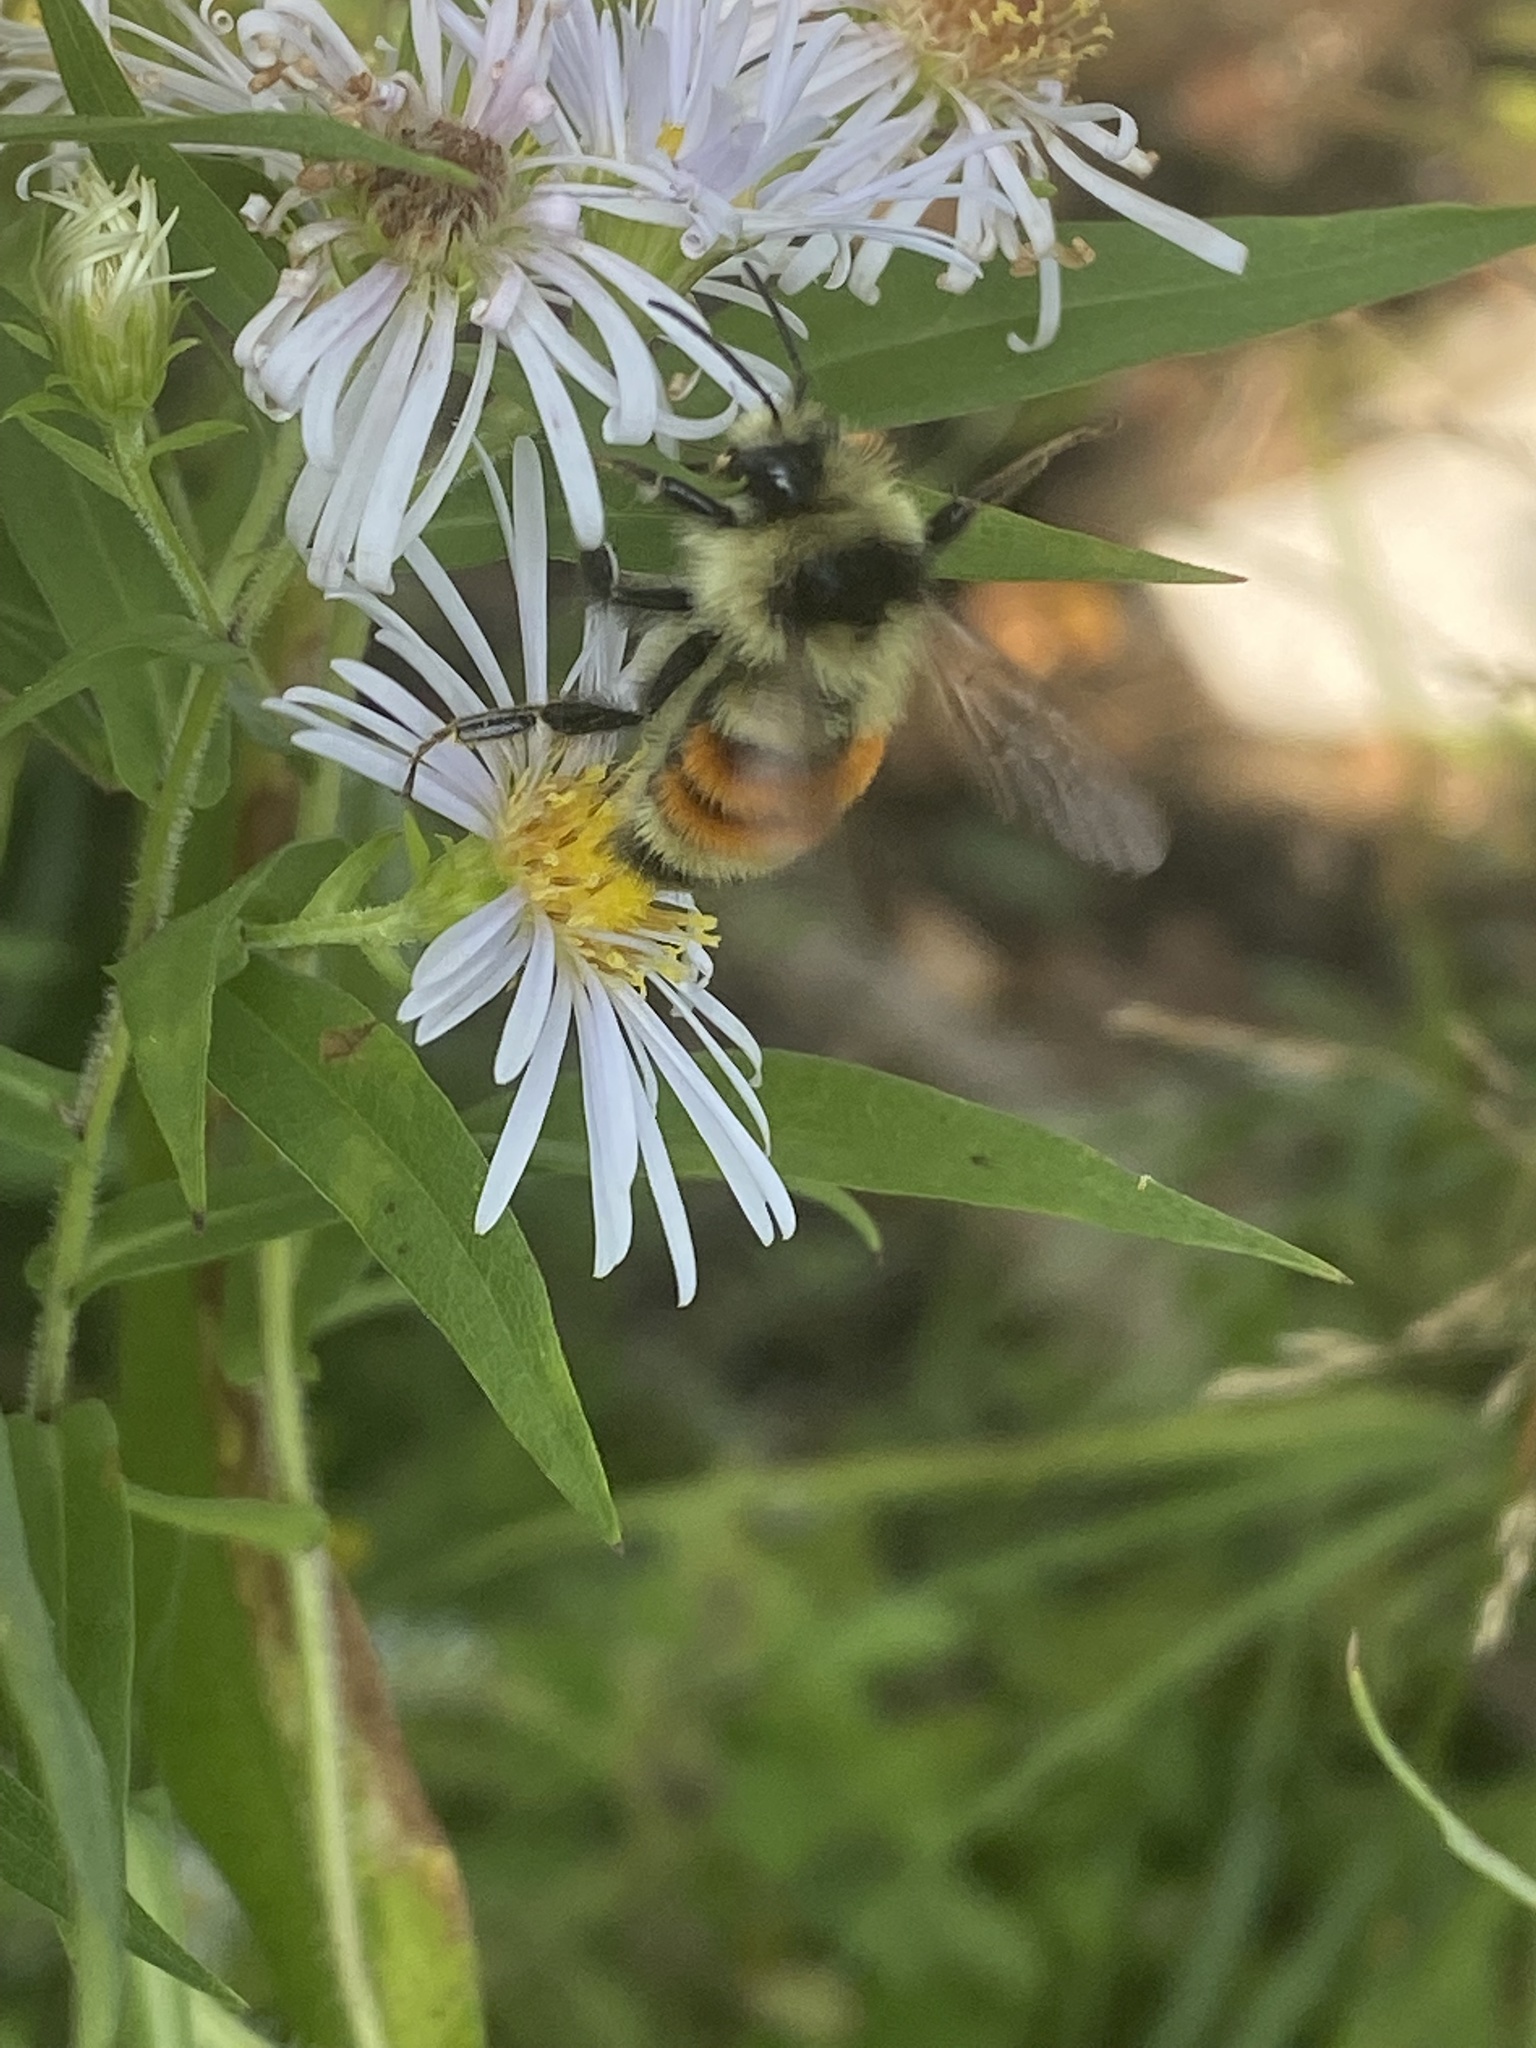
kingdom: Animalia
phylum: Arthropoda
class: Insecta
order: Hymenoptera
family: Apidae
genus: Bombus
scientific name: Bombus ternarius
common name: Tri-colored bumble bee
